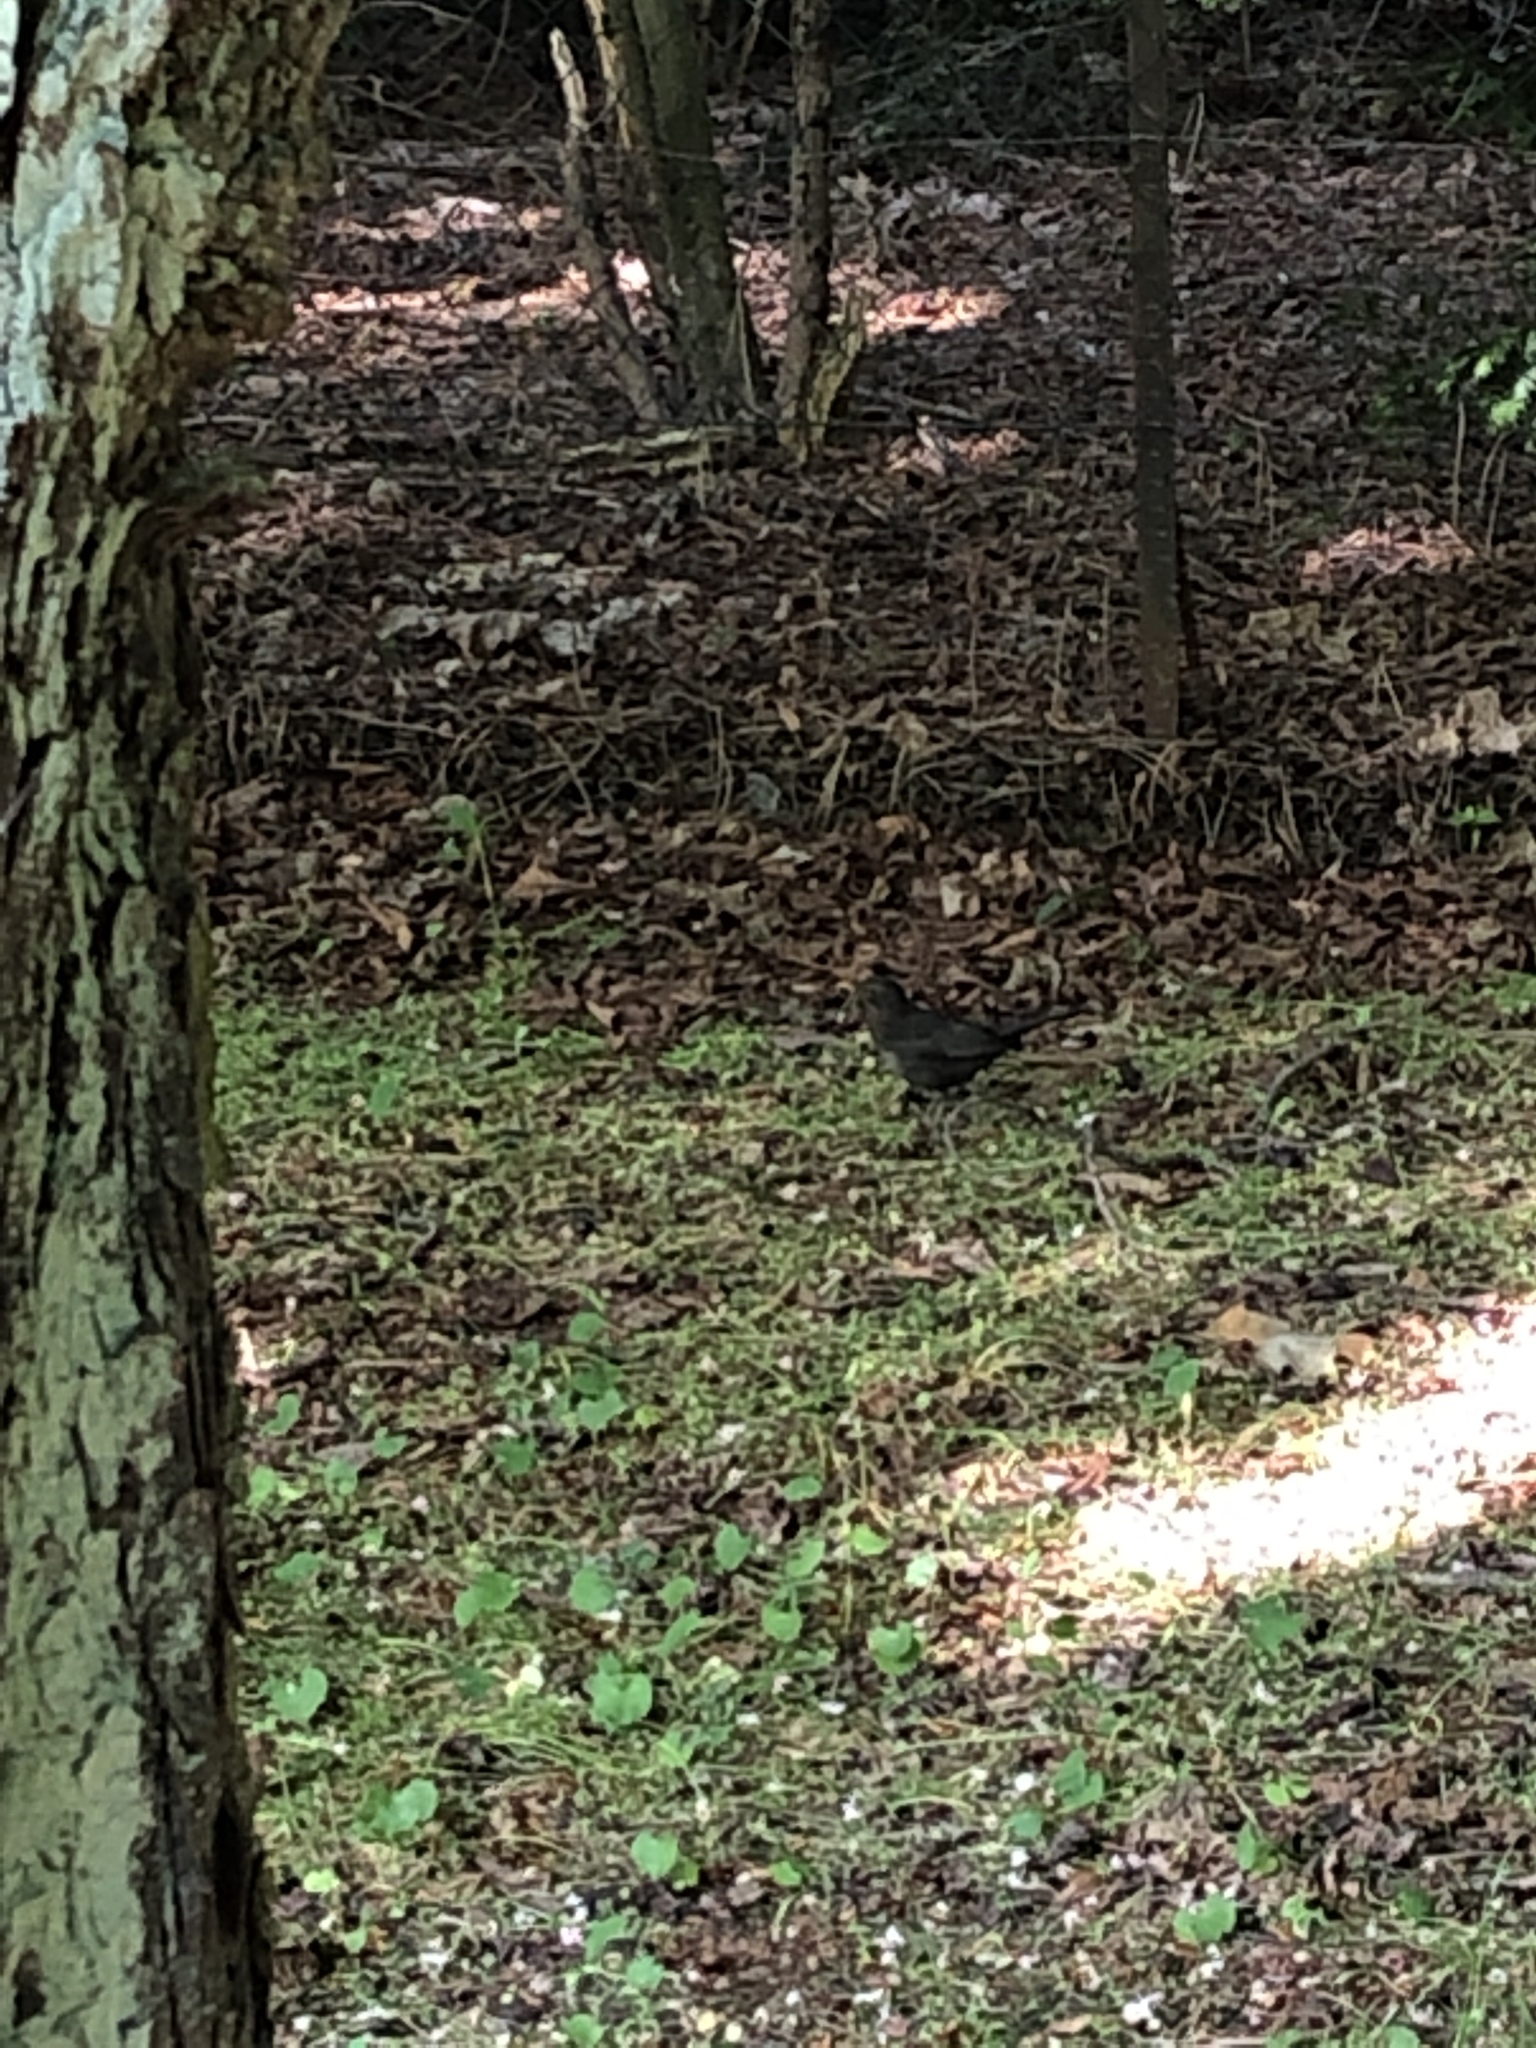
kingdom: Animalia
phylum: Chordata
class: Aves
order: Passeriformes
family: Turdidae
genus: Turdus
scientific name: Turdus merula
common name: Common blackbird
